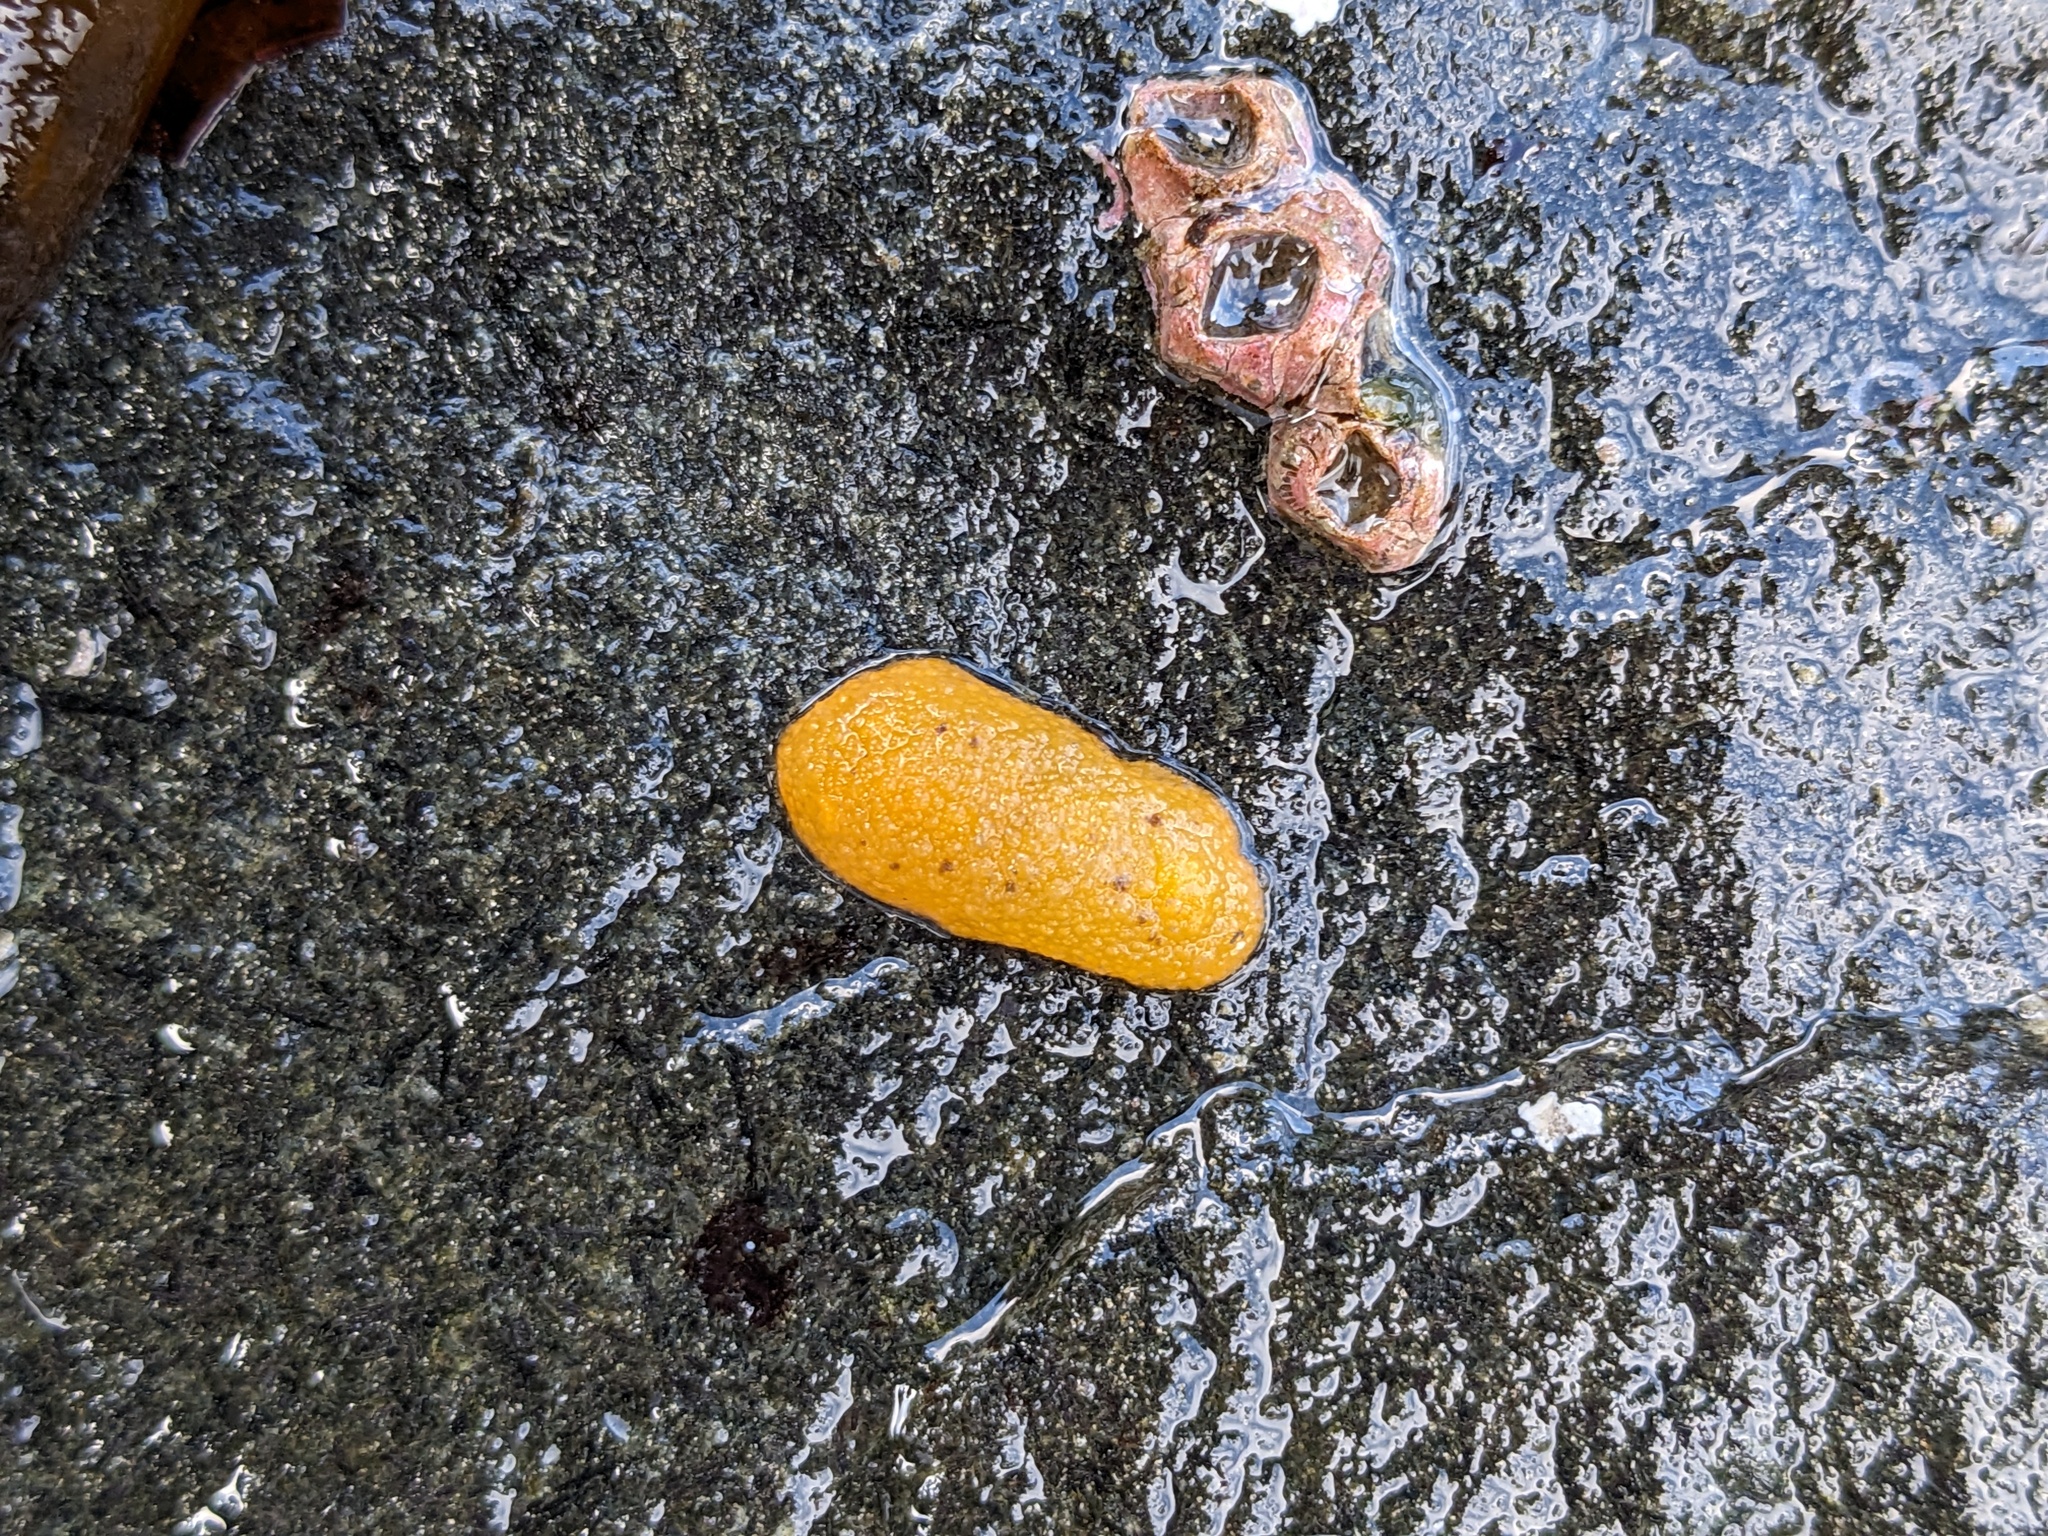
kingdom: Animalia
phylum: Mollusca
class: Gastropoda
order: Nudibranchia
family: Dorididae
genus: Doris
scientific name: Doris montereyensis
